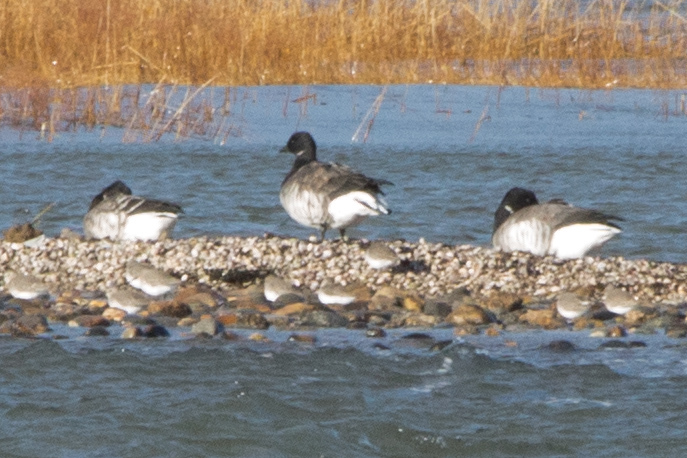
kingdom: Animalia
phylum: Chordata
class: Aves
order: Anseriformes
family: Anatidae
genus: Branta
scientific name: Branta bernicla
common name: Brant goose
